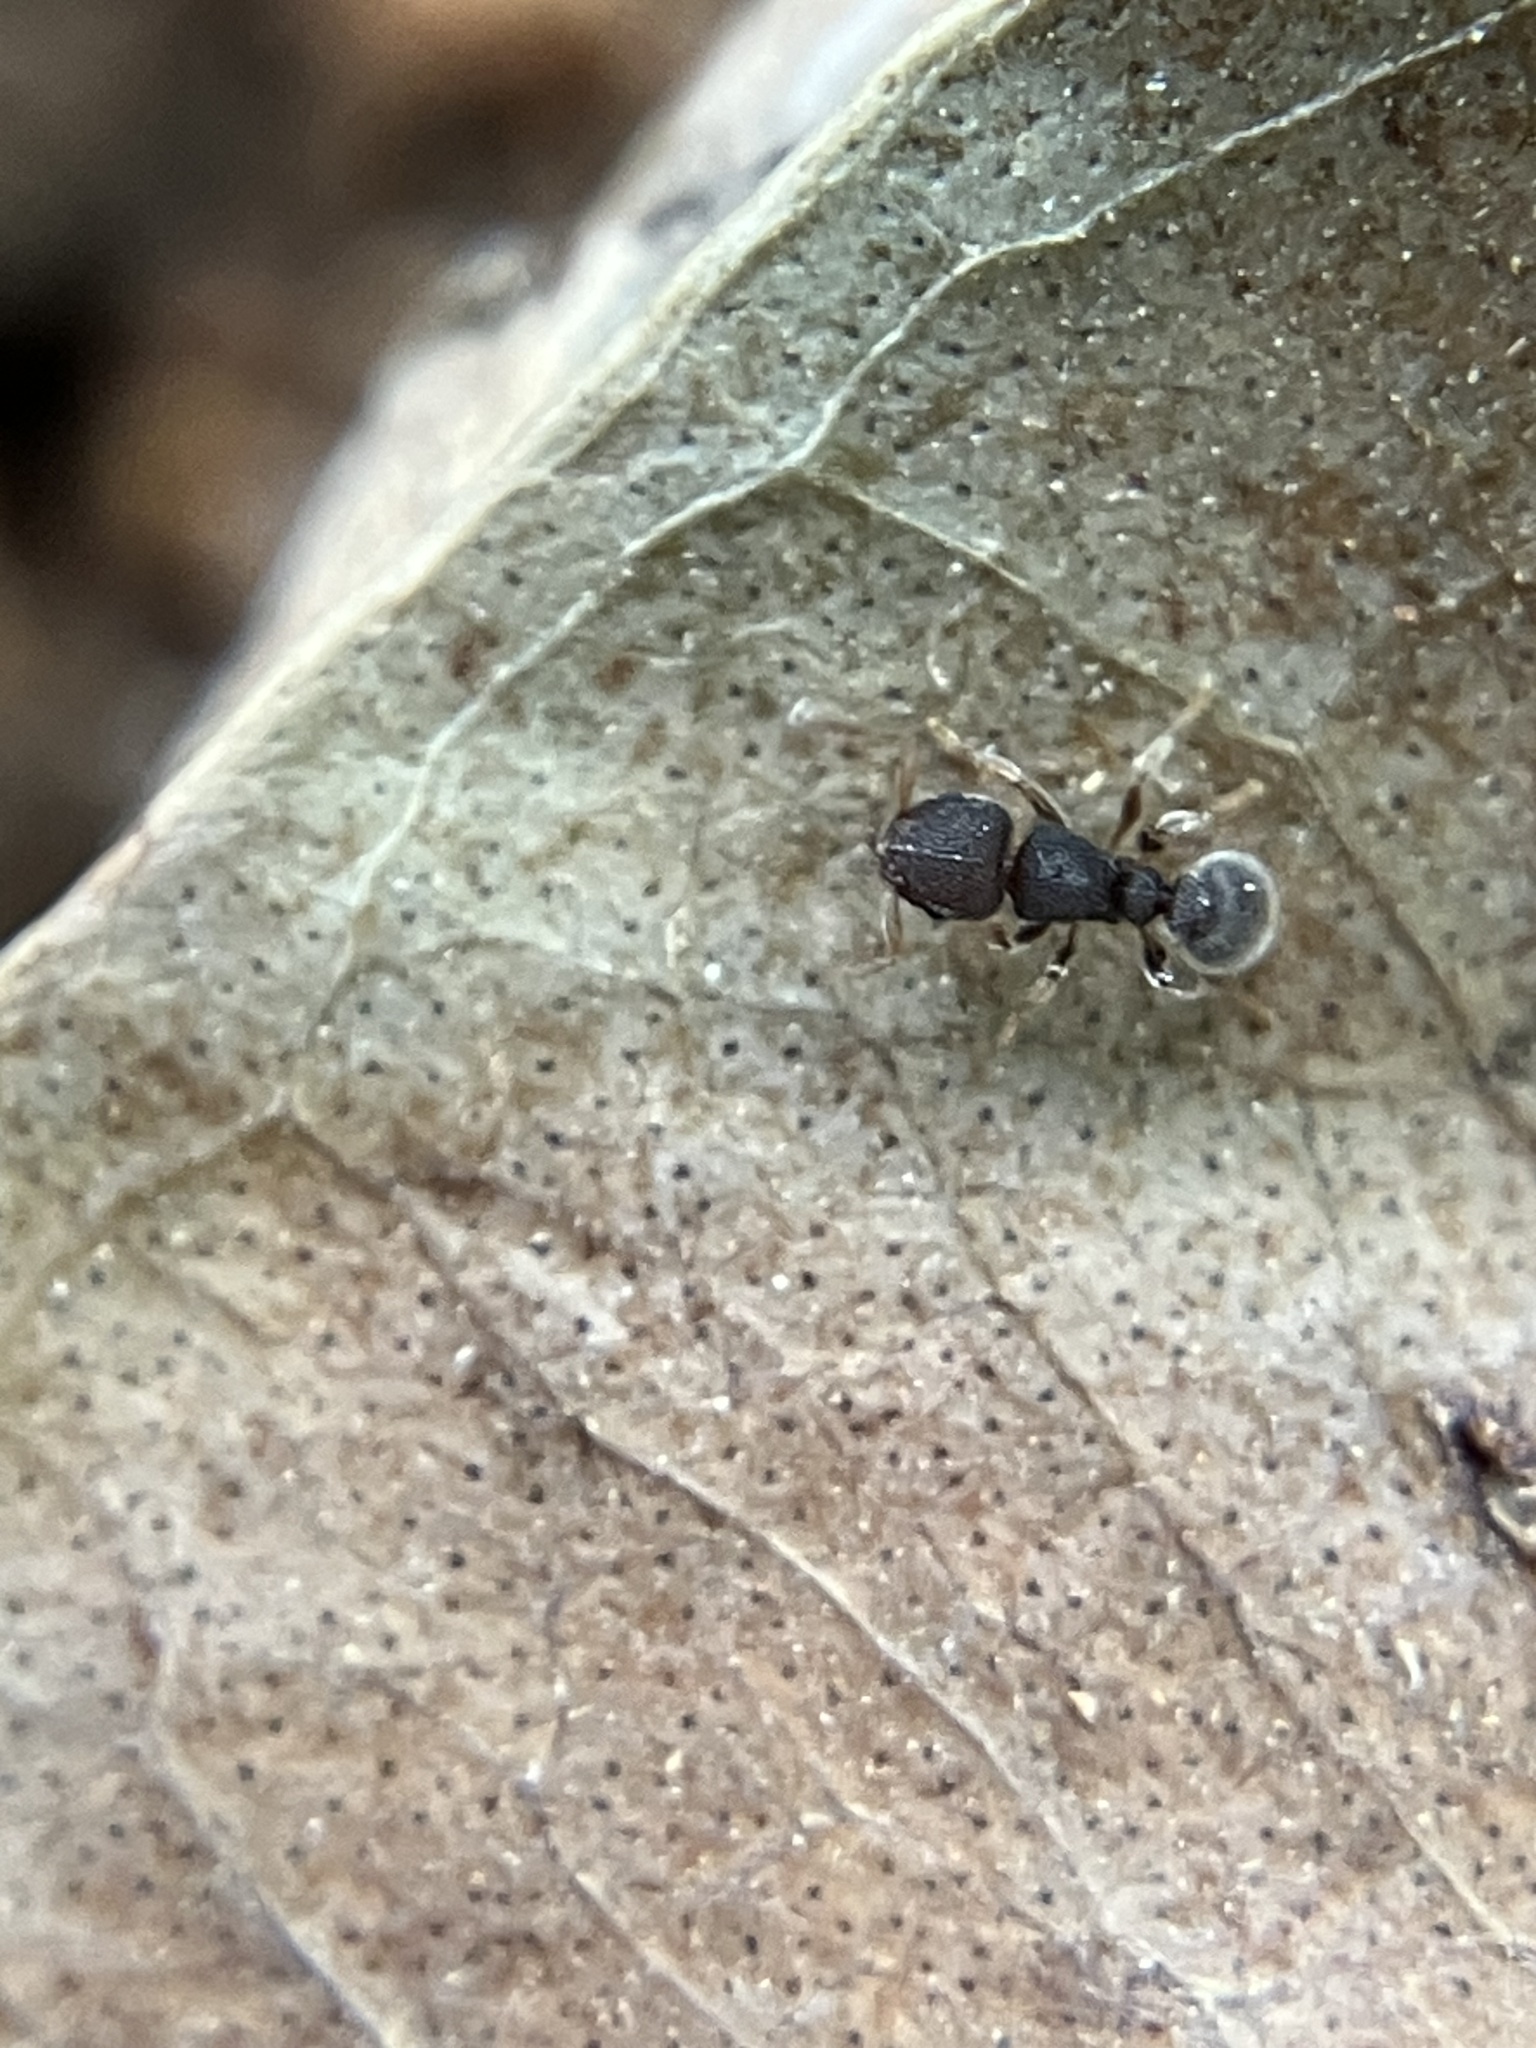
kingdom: Animalia
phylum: Arthropoda
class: Insecta
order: Hymenoptera
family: Formicidae
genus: Tetramorium
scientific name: Tetramorium walshi
